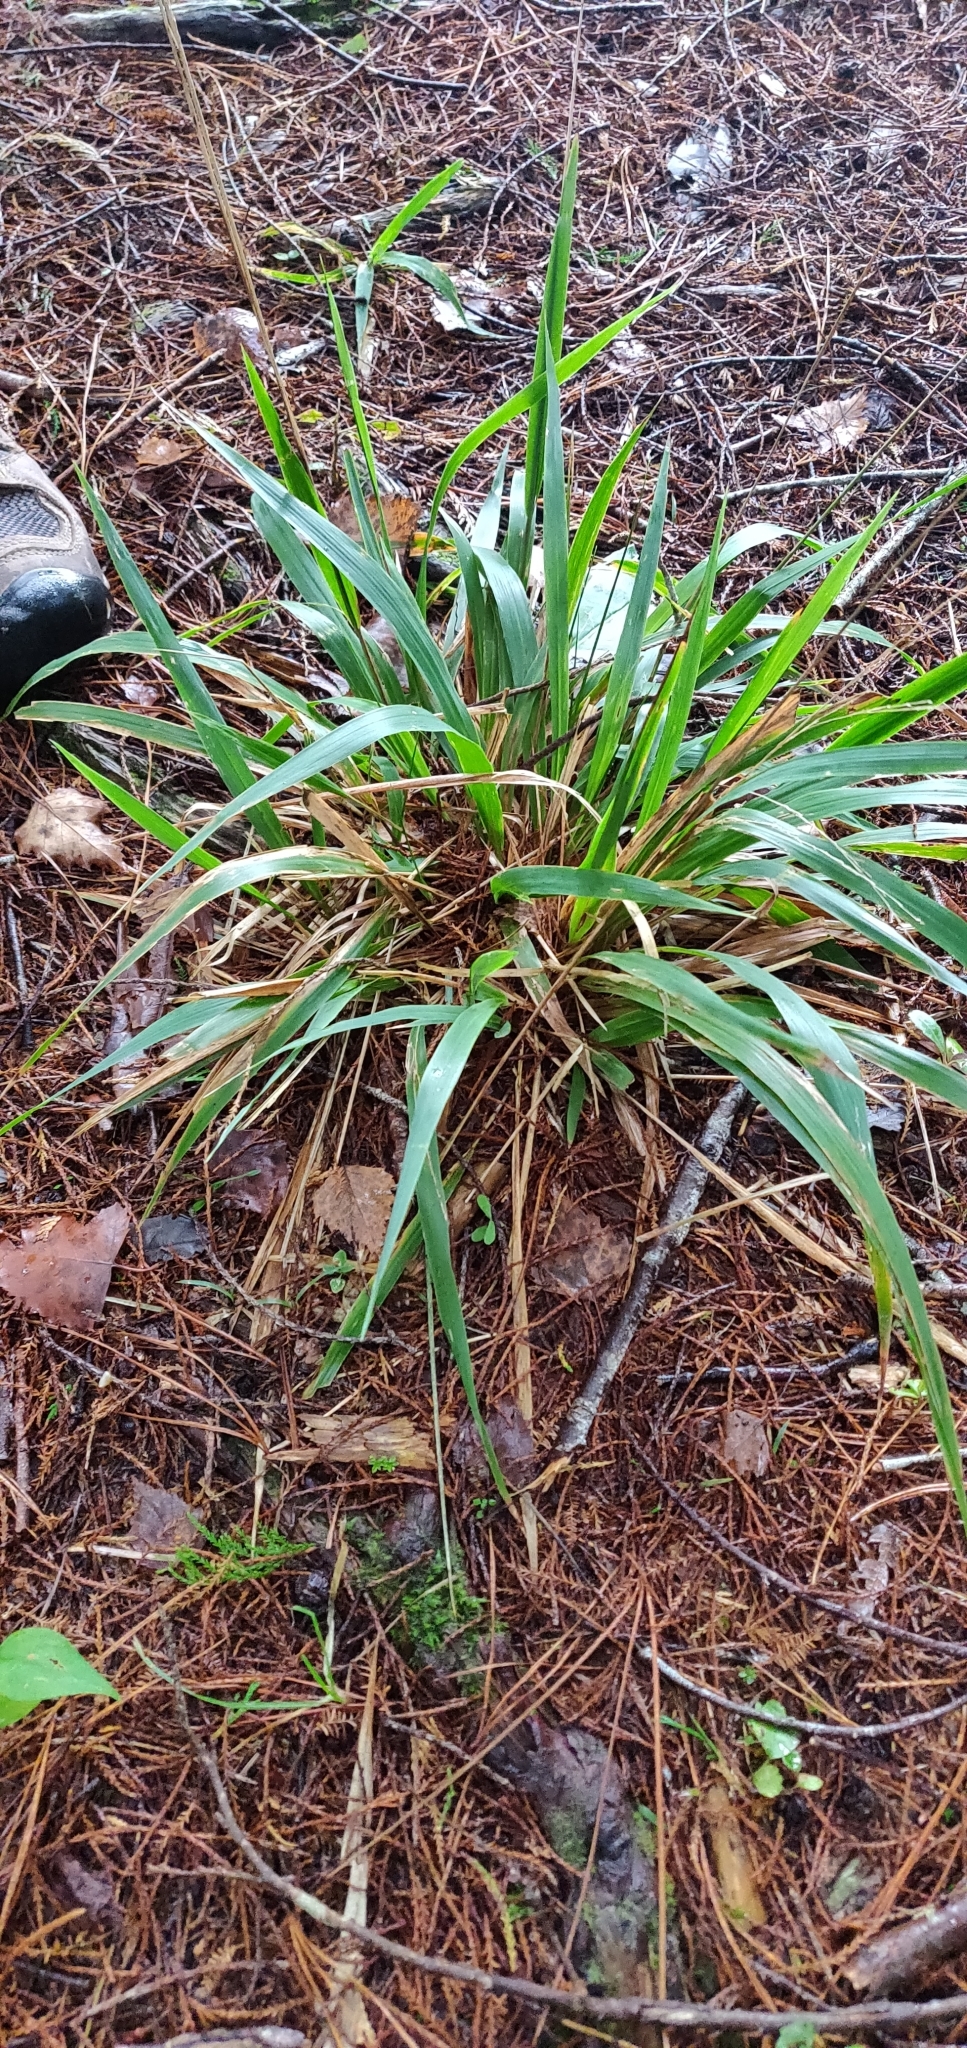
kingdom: Plantae
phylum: Tracheophyta
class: Liliopsida
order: Poales
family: Poaceae
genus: Ehrharta
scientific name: Ehrharta diplax
